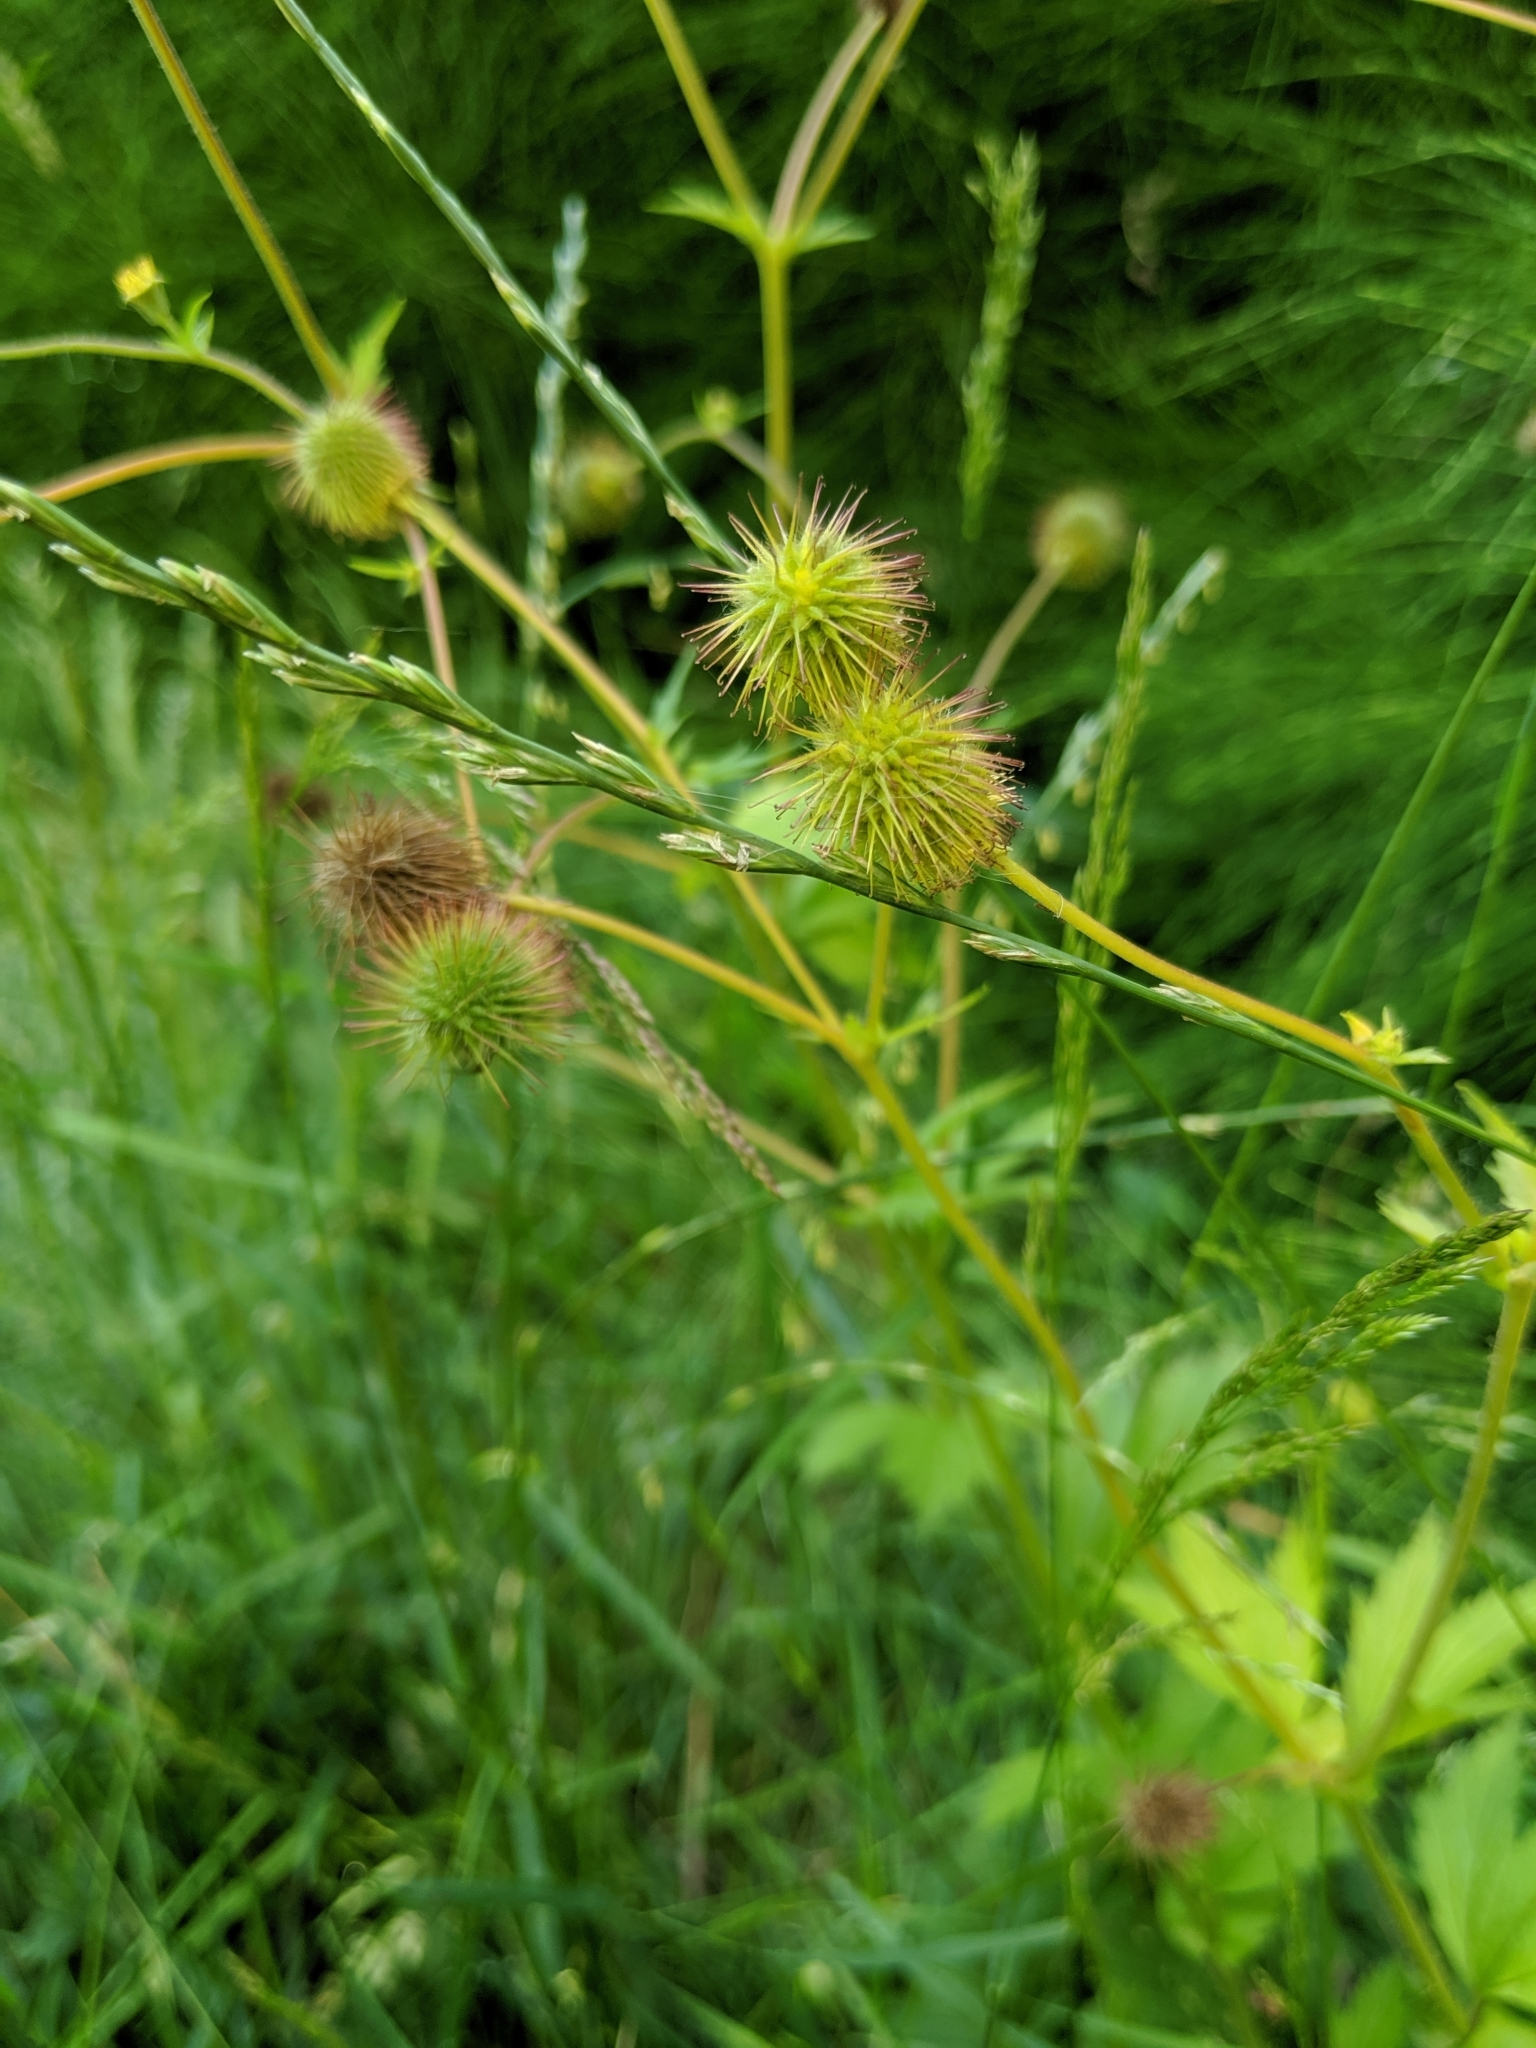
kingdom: Plantae
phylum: Tracheophyta
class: Magnoliopsida
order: Rosales
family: Rosaceae
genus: Geum
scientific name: Geum macrophyllum
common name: Large-leaved avens
